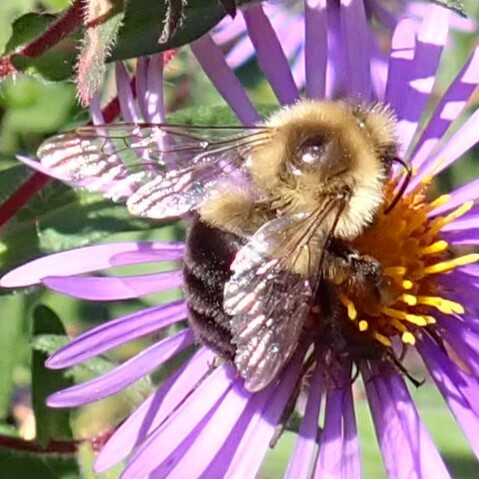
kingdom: Animalia
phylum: Arthropoda
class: Insecta
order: Hymenoptera
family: Apidae
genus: Bombus
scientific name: Bombus impatiens
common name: Common eastern bumble bee
